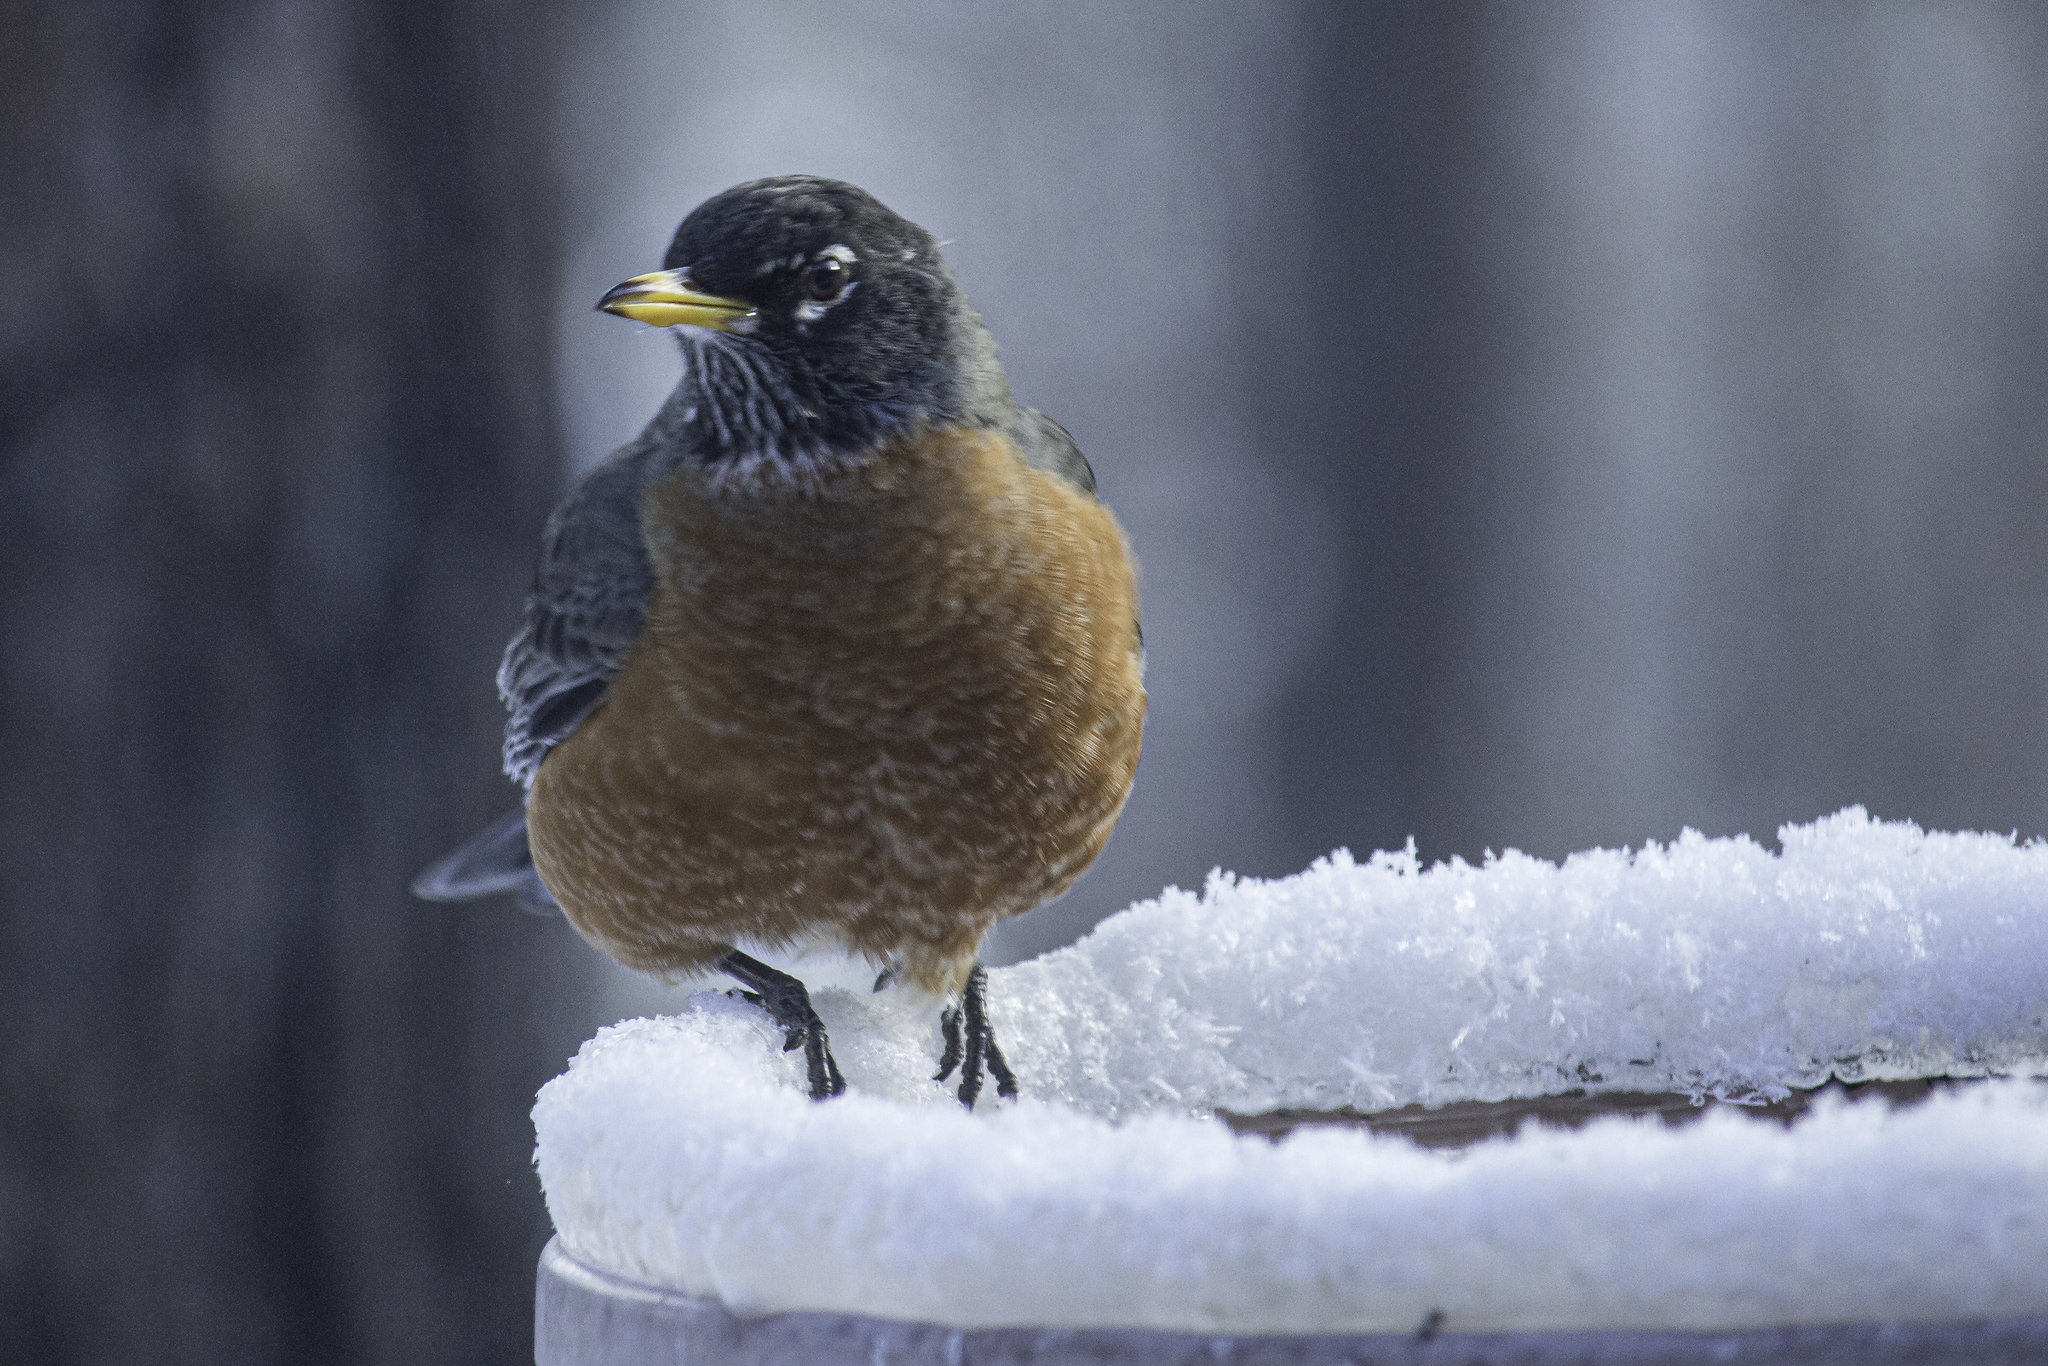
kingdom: Animalia
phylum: Chordata
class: Aves
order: Passeriformes
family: Turdidae
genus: Turdus
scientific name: Turdus migratorius
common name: American robin
